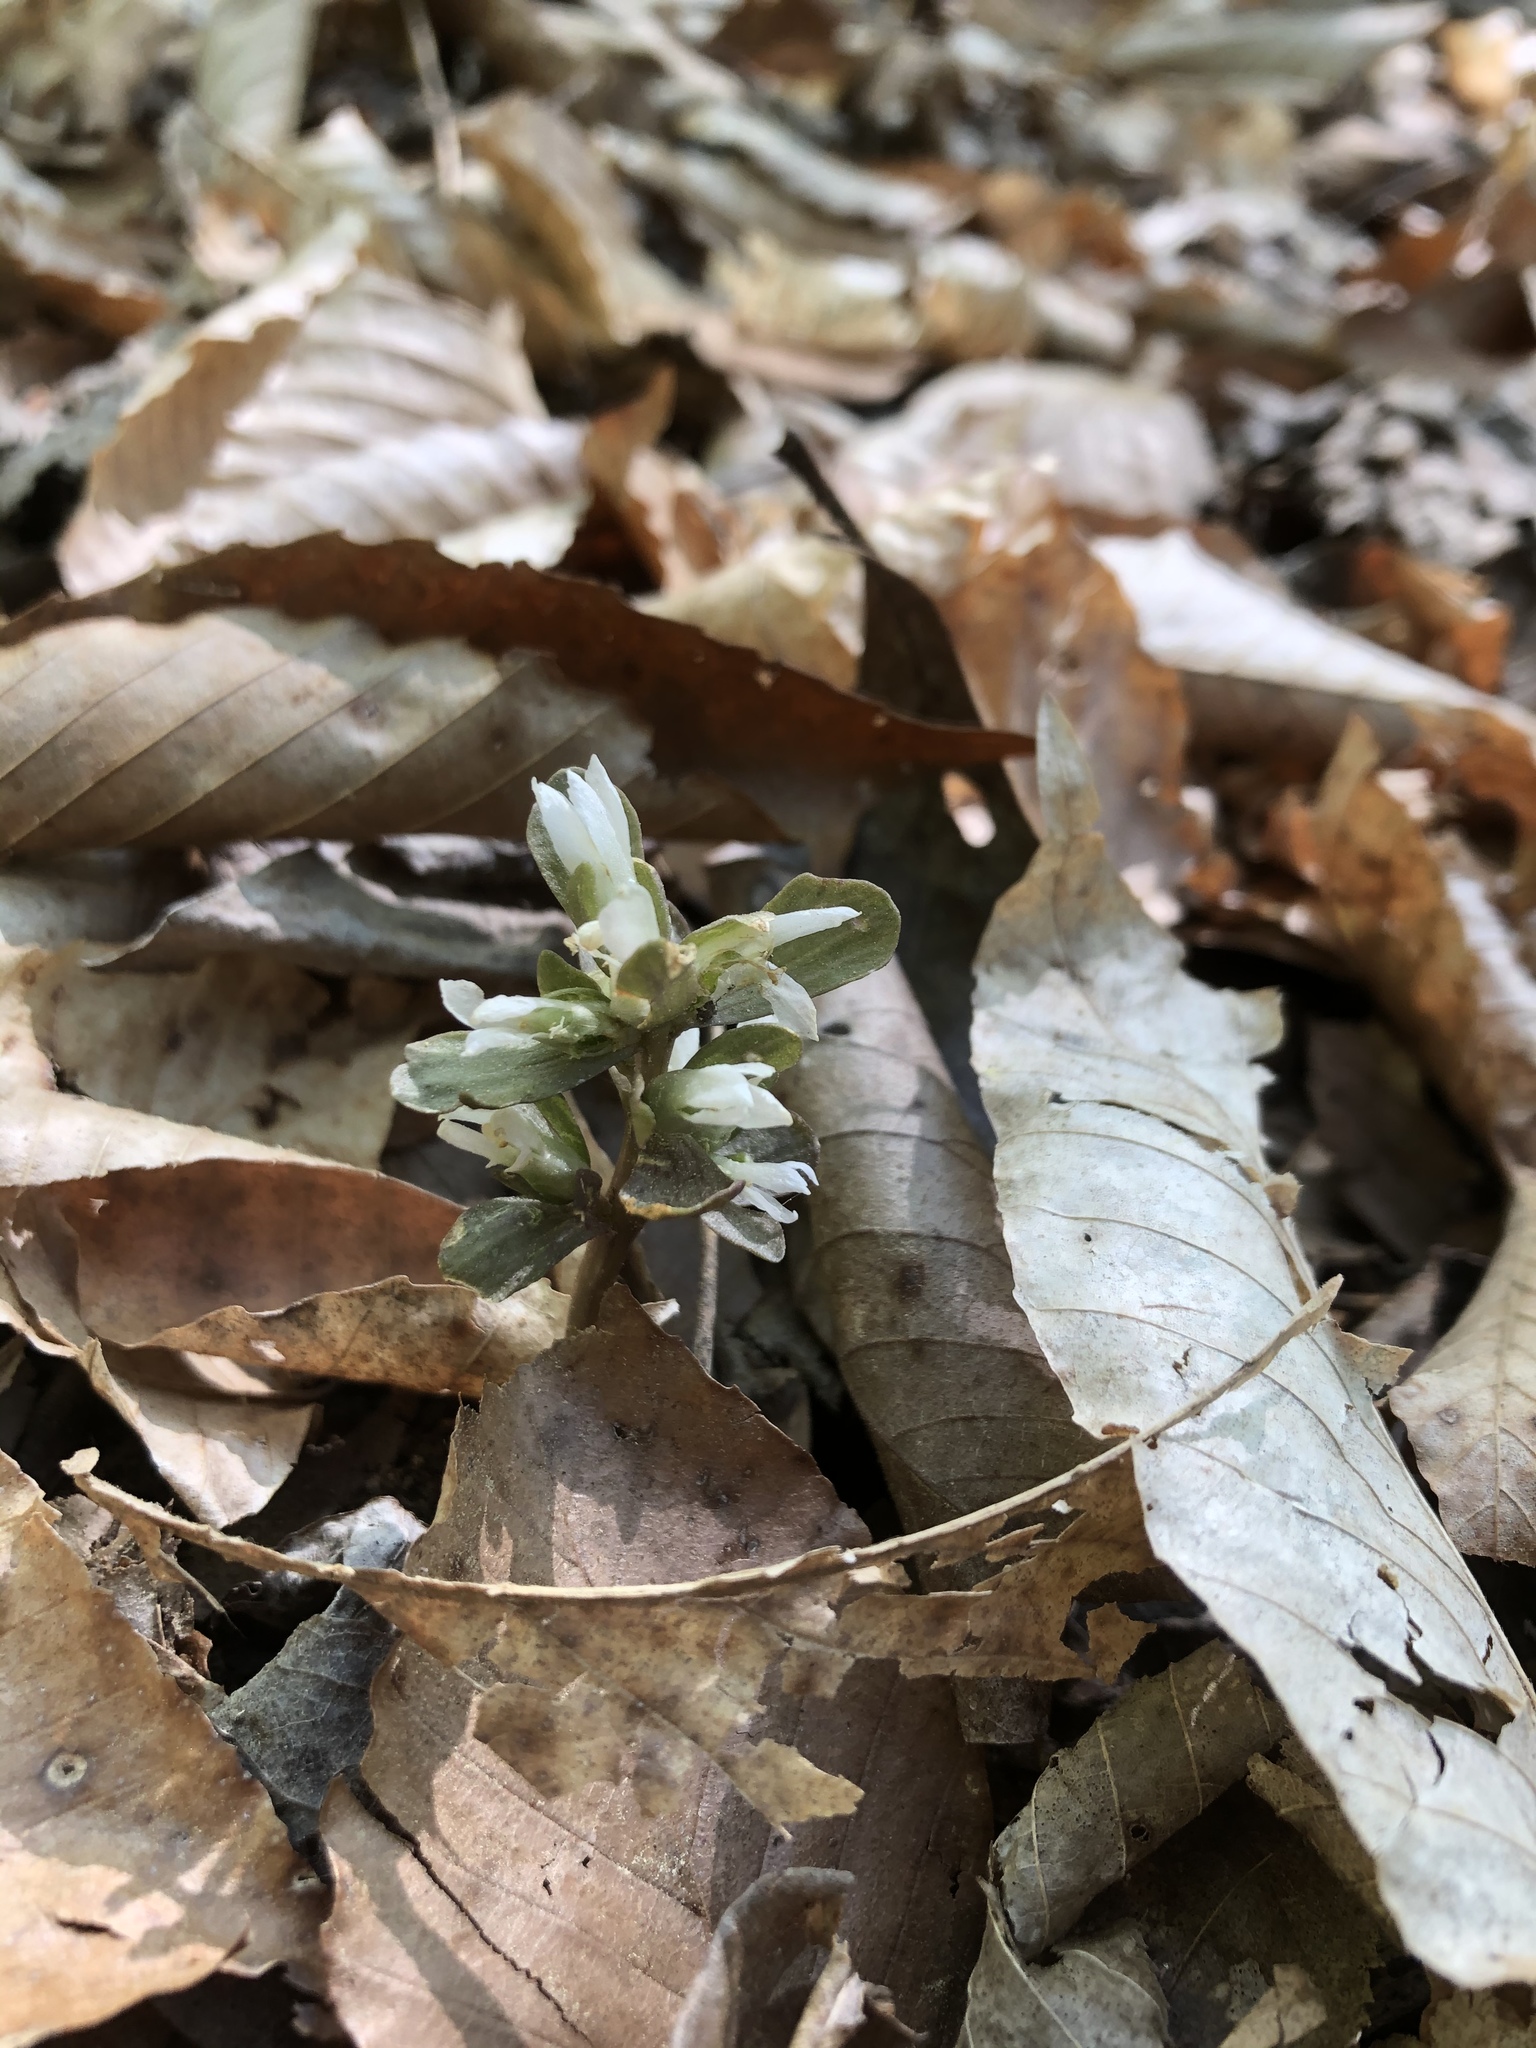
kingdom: Plantae
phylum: Tracheophyta
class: Magnoliopsida
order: Gentianales
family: Gentianaceae
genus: Obolaria
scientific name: Obolaria virginica
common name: Pennywort
